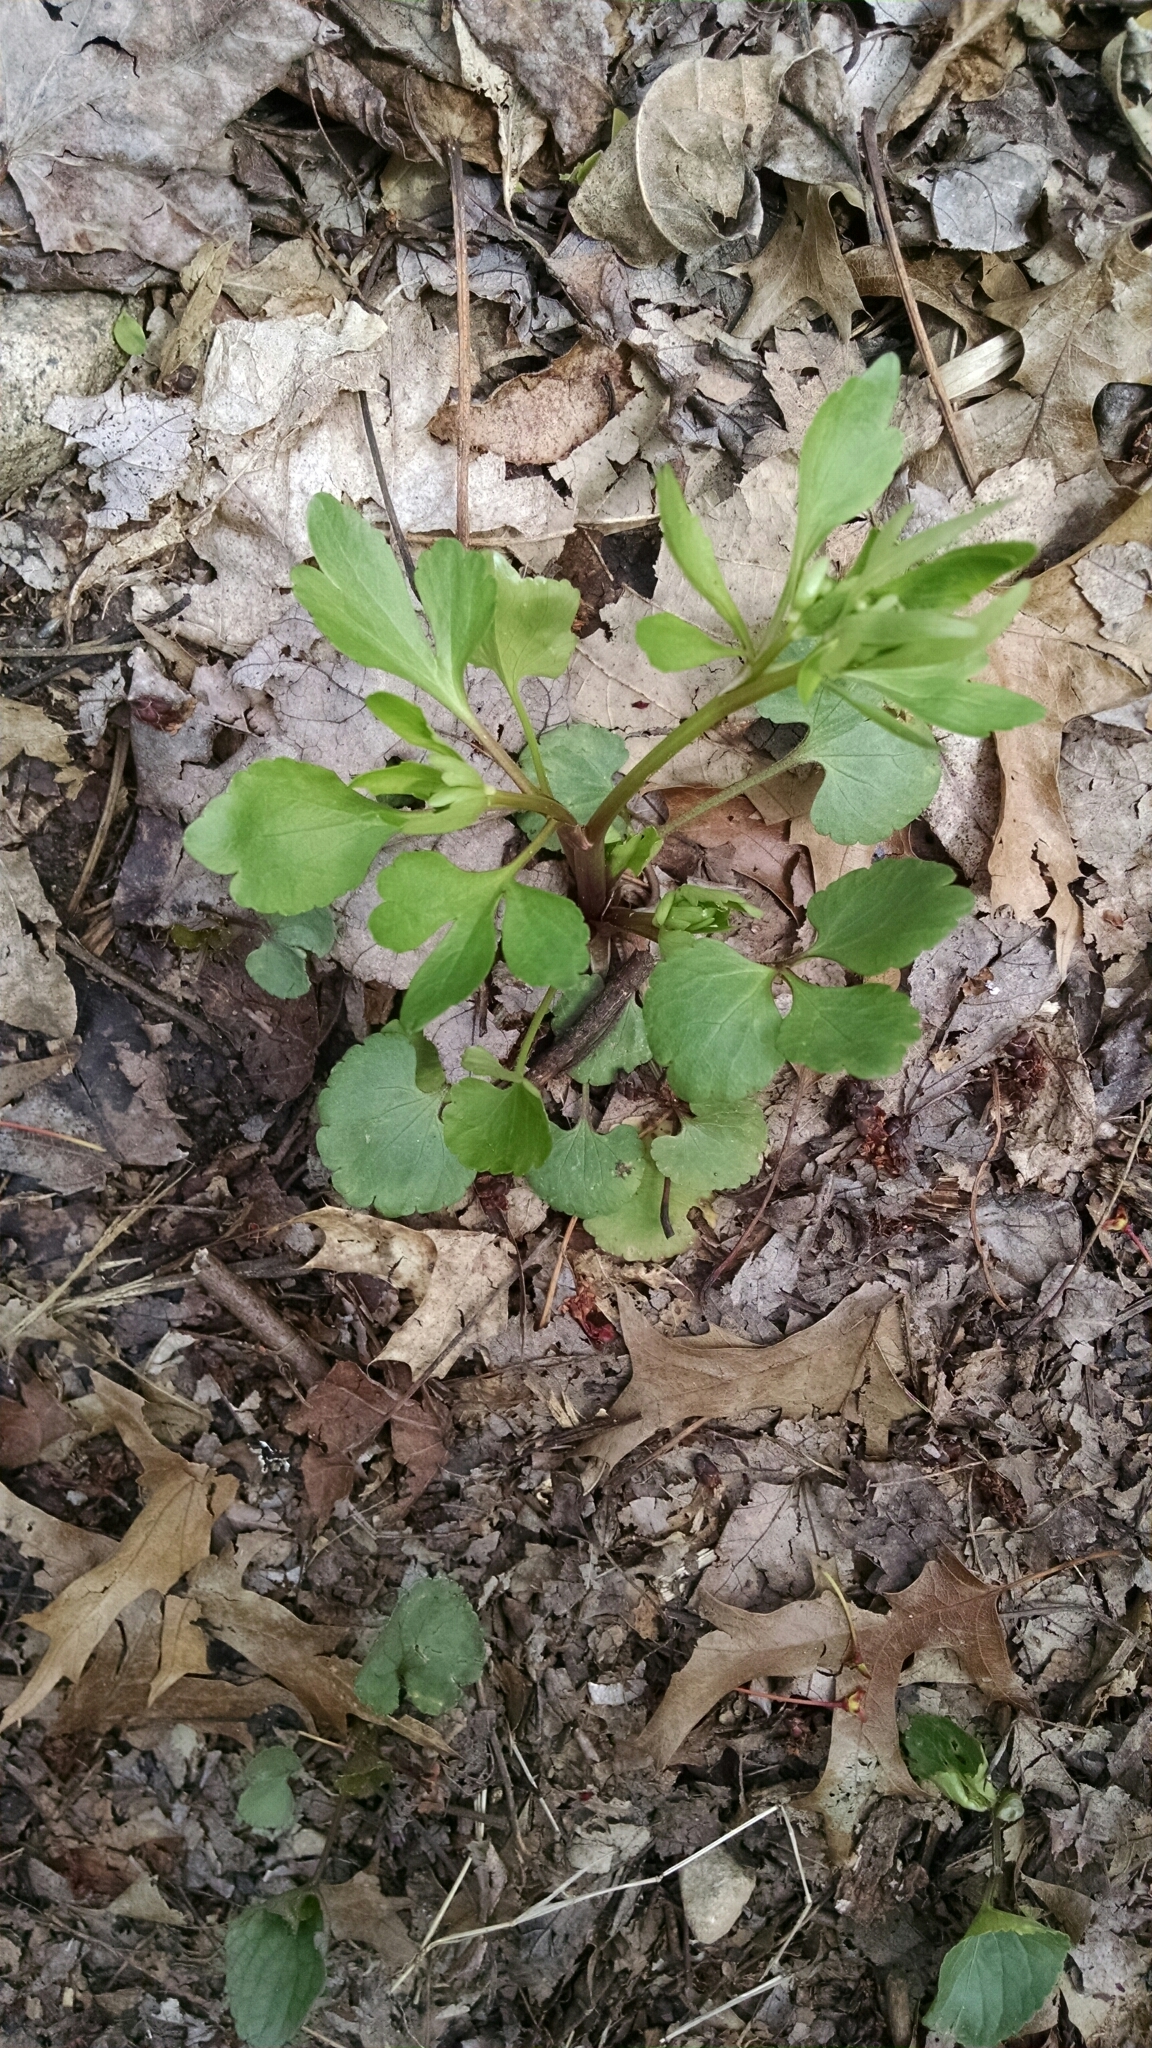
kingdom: Plantae
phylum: Tracheophyta
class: Magnoliopsida
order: Ranunculales
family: Ranunculaceae
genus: Ranunculus
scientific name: Ranunculus abortivus
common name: Early wood buttercup
